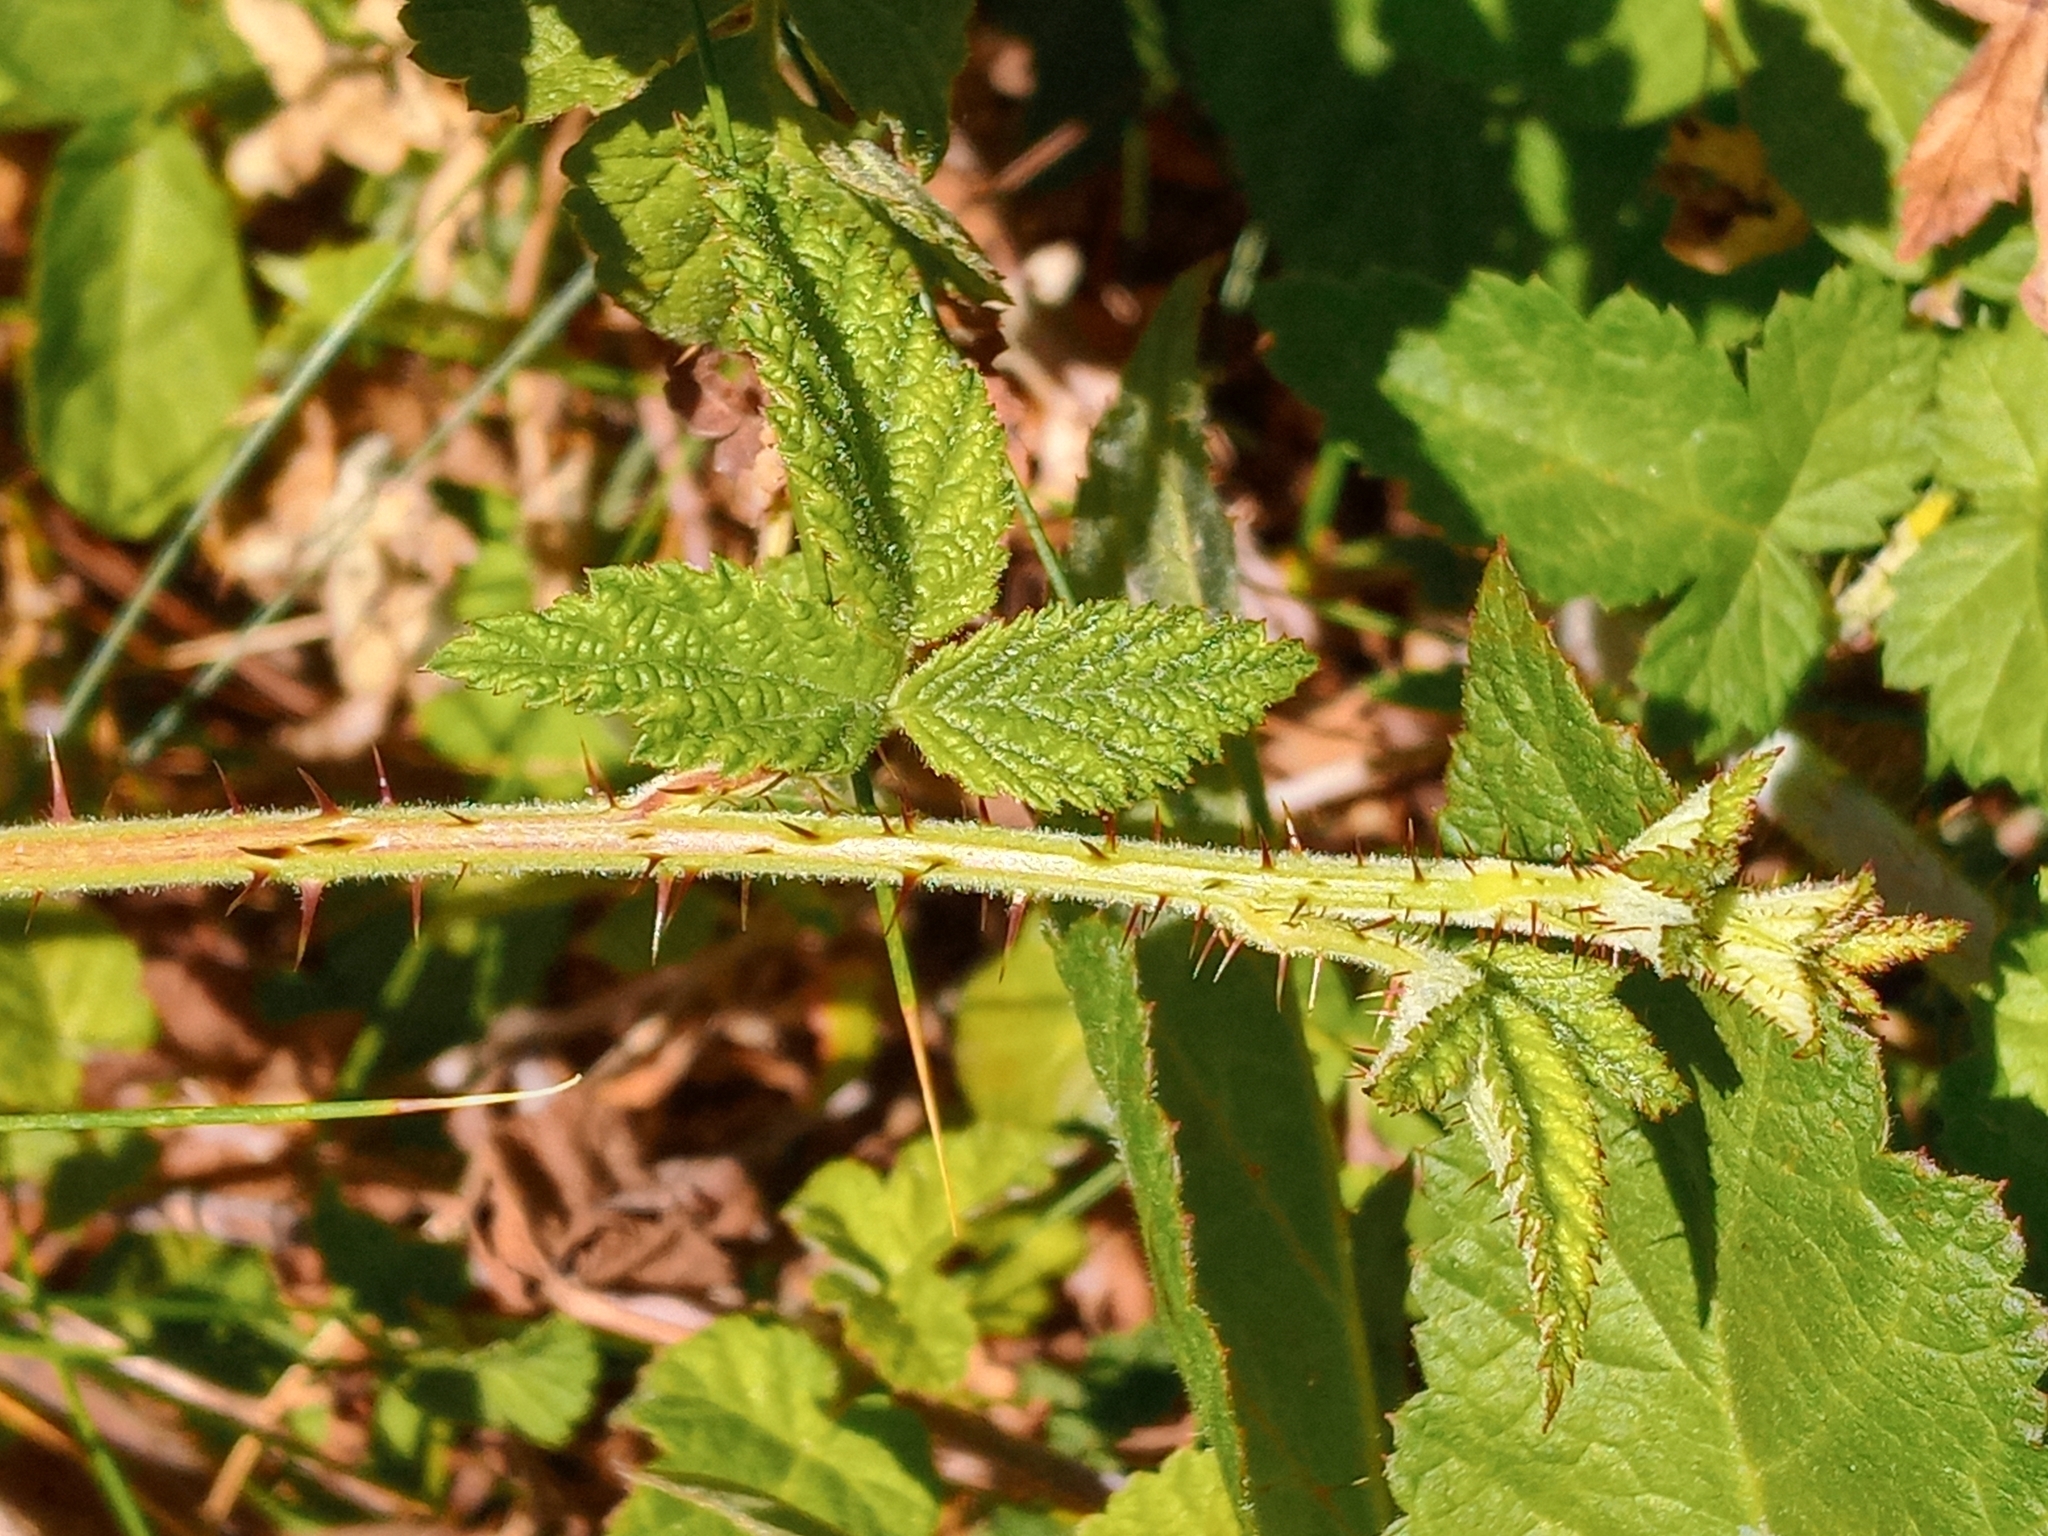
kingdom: Plantae
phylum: Tracheophyta
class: Magnoliopsida
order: Rosales
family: Rosaceae
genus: Rubus
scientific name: Rubus ursinus
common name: Pacific blackberry
